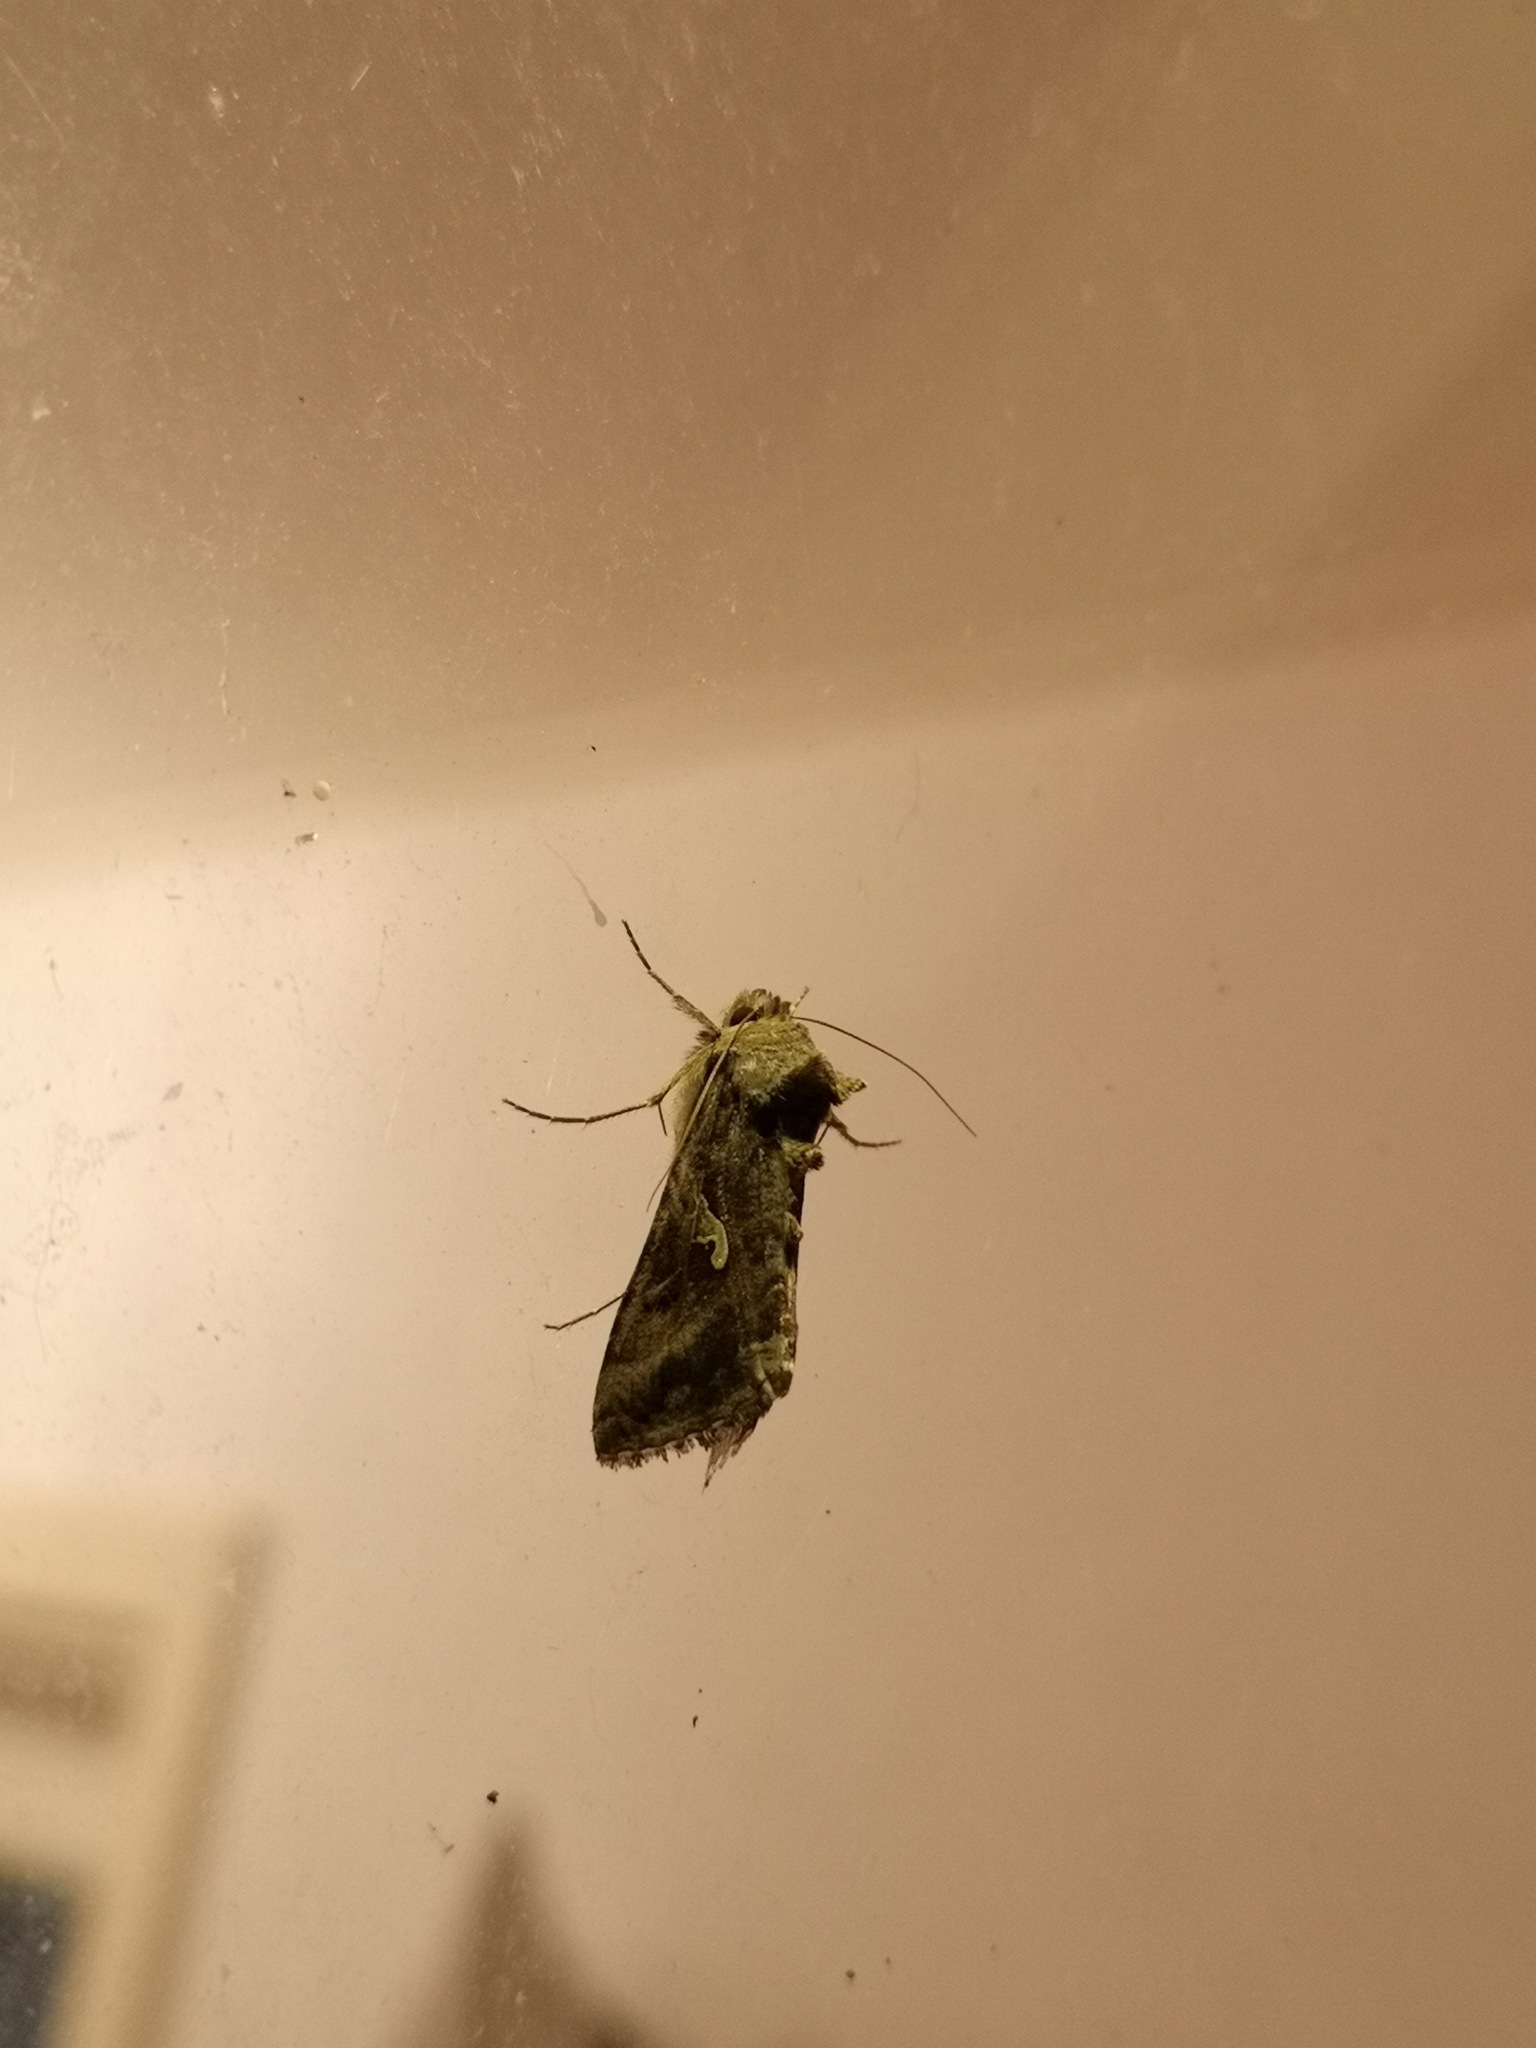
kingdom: Animalia
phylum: Arthropoda
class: Insecta
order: Lepidoptera
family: Noctuidae
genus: Autographa
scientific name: Autographa gamma
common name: Silver y
